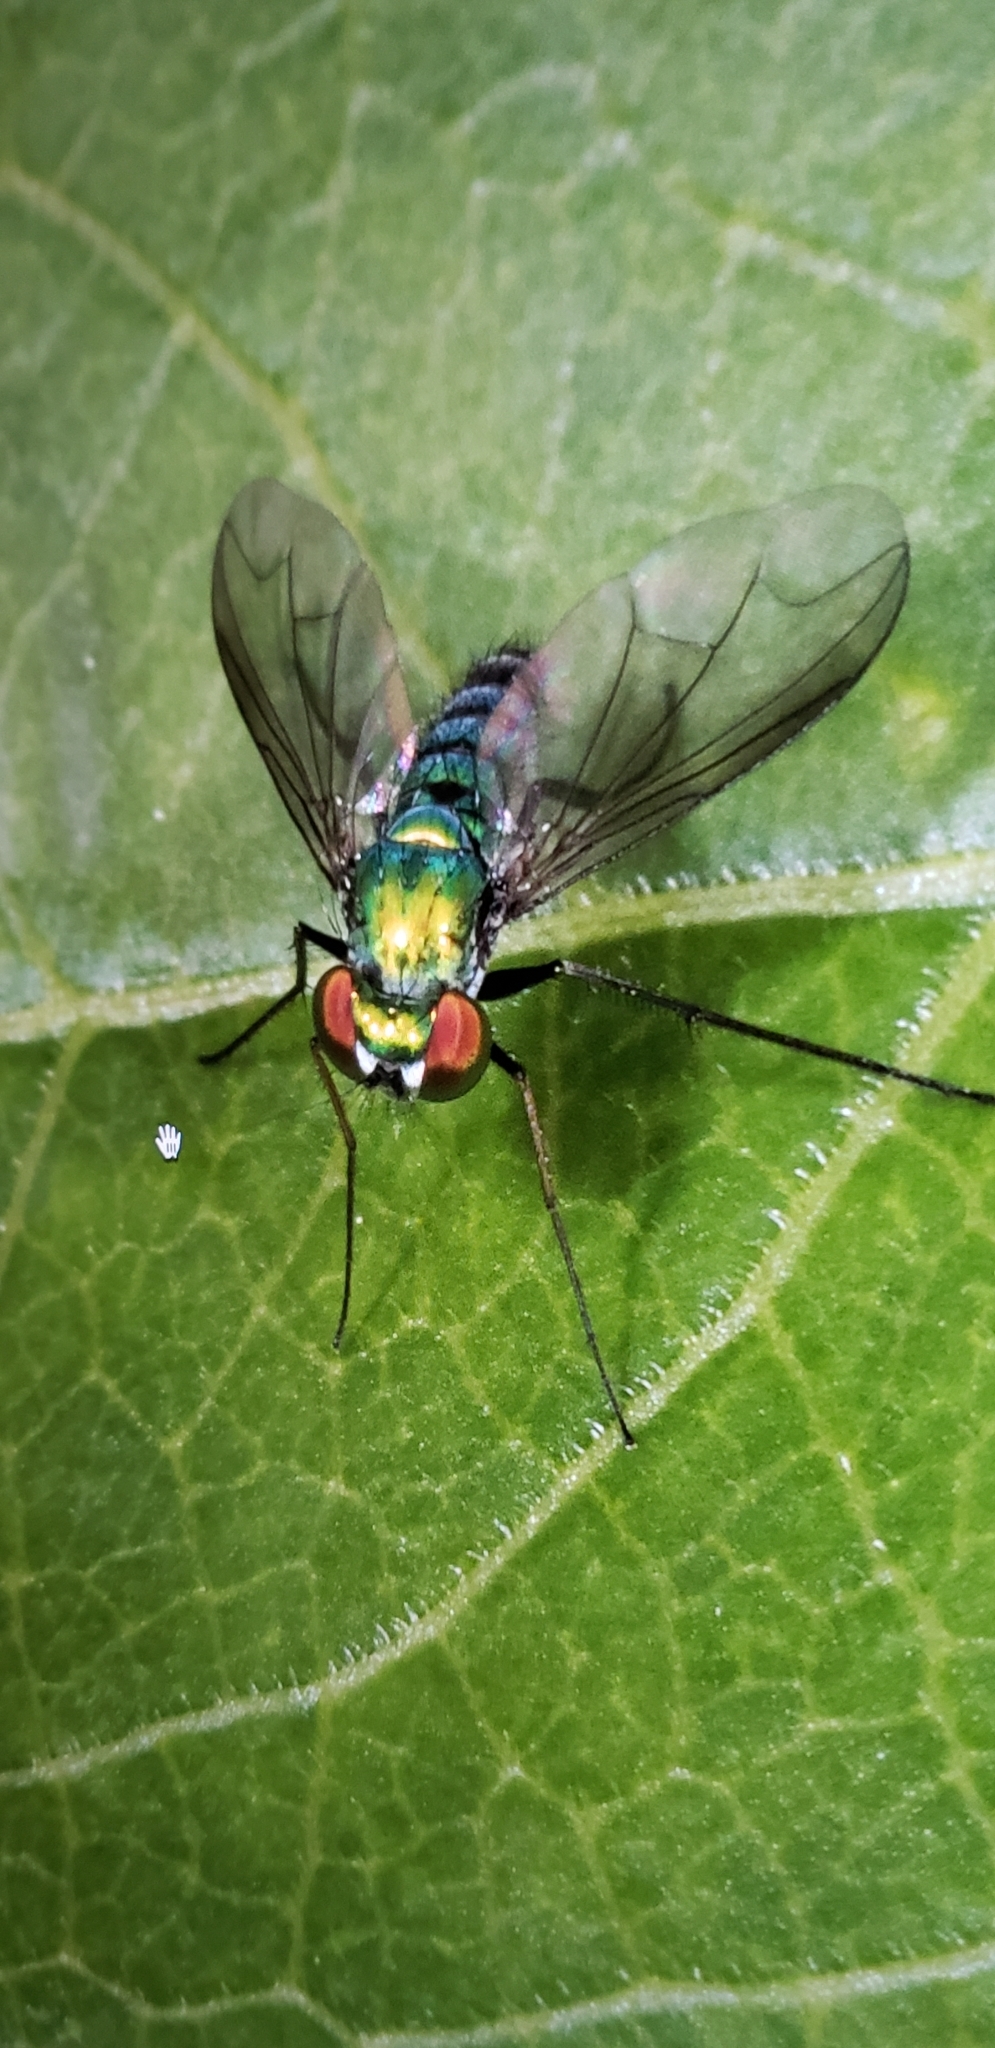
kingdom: Animalia
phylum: Arthropoda
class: Insecta
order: Diptera
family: Dolichopodidae
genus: Condylostylus
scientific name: Condylostylus longicornis
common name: Long-legged fly
